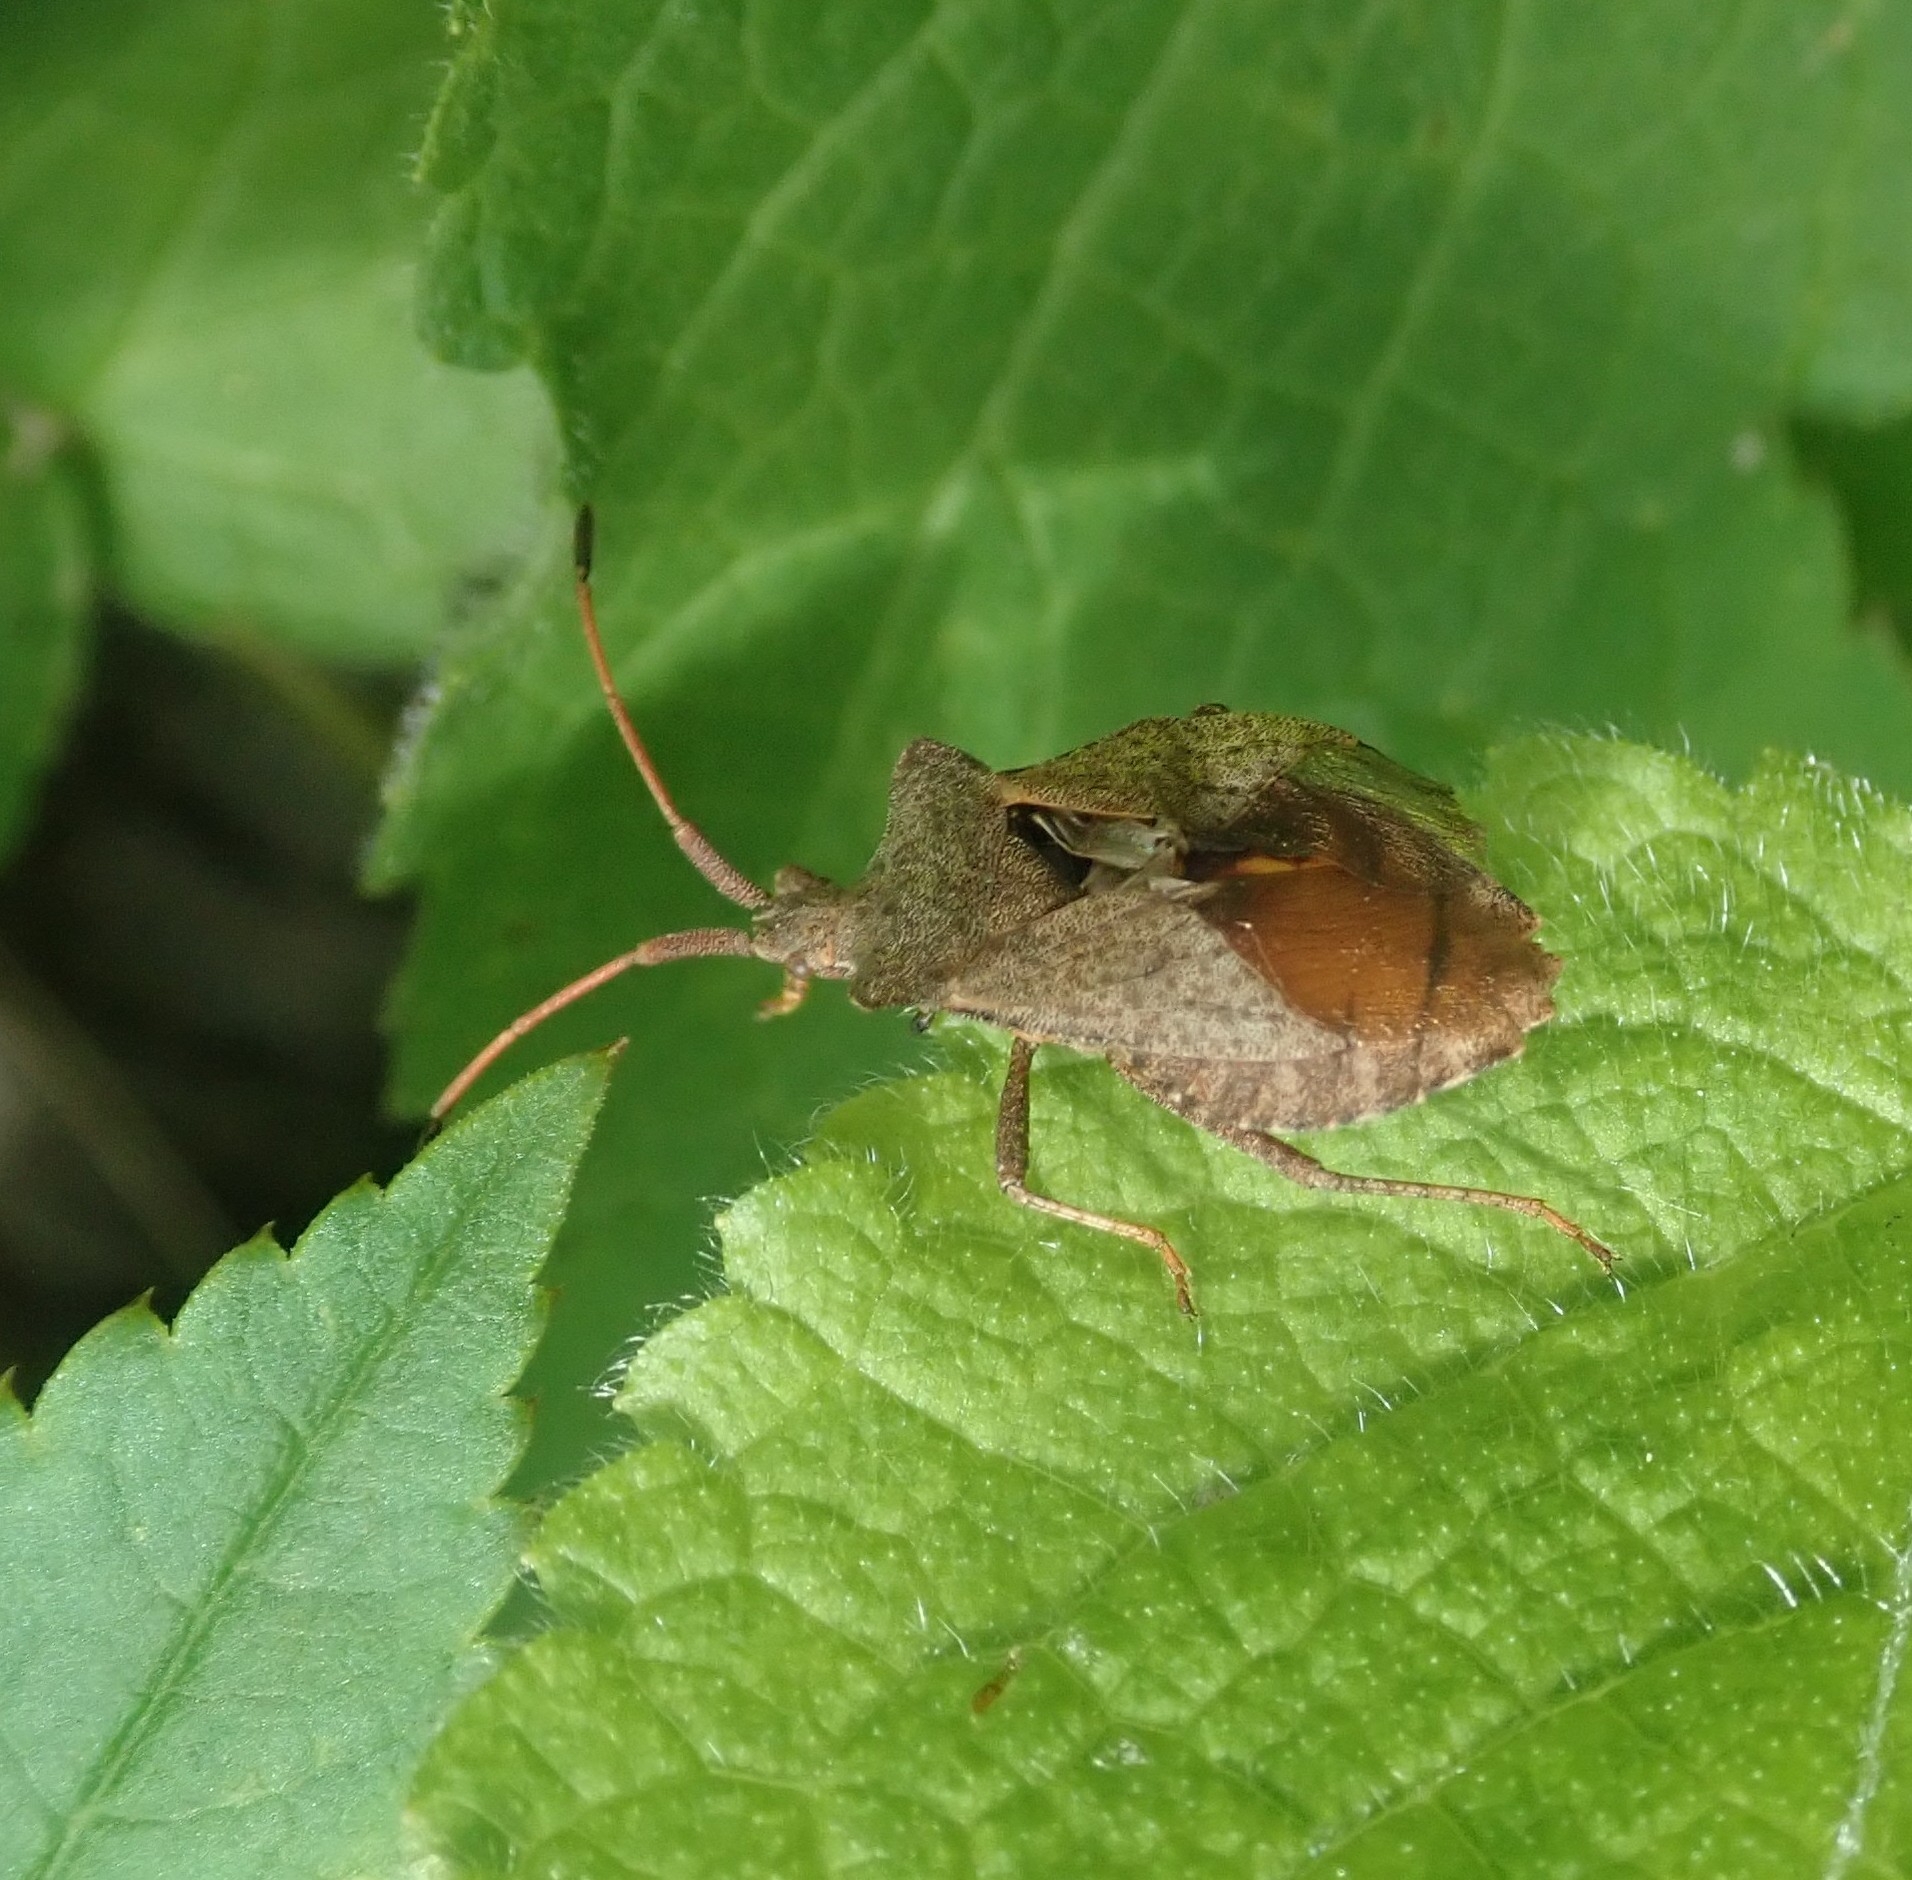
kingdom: Animalia
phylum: Arthropoda
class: Insecta
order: Hemiptera
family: Coreidae
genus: Coreus
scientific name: Coreus marginatus
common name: Dock bug
